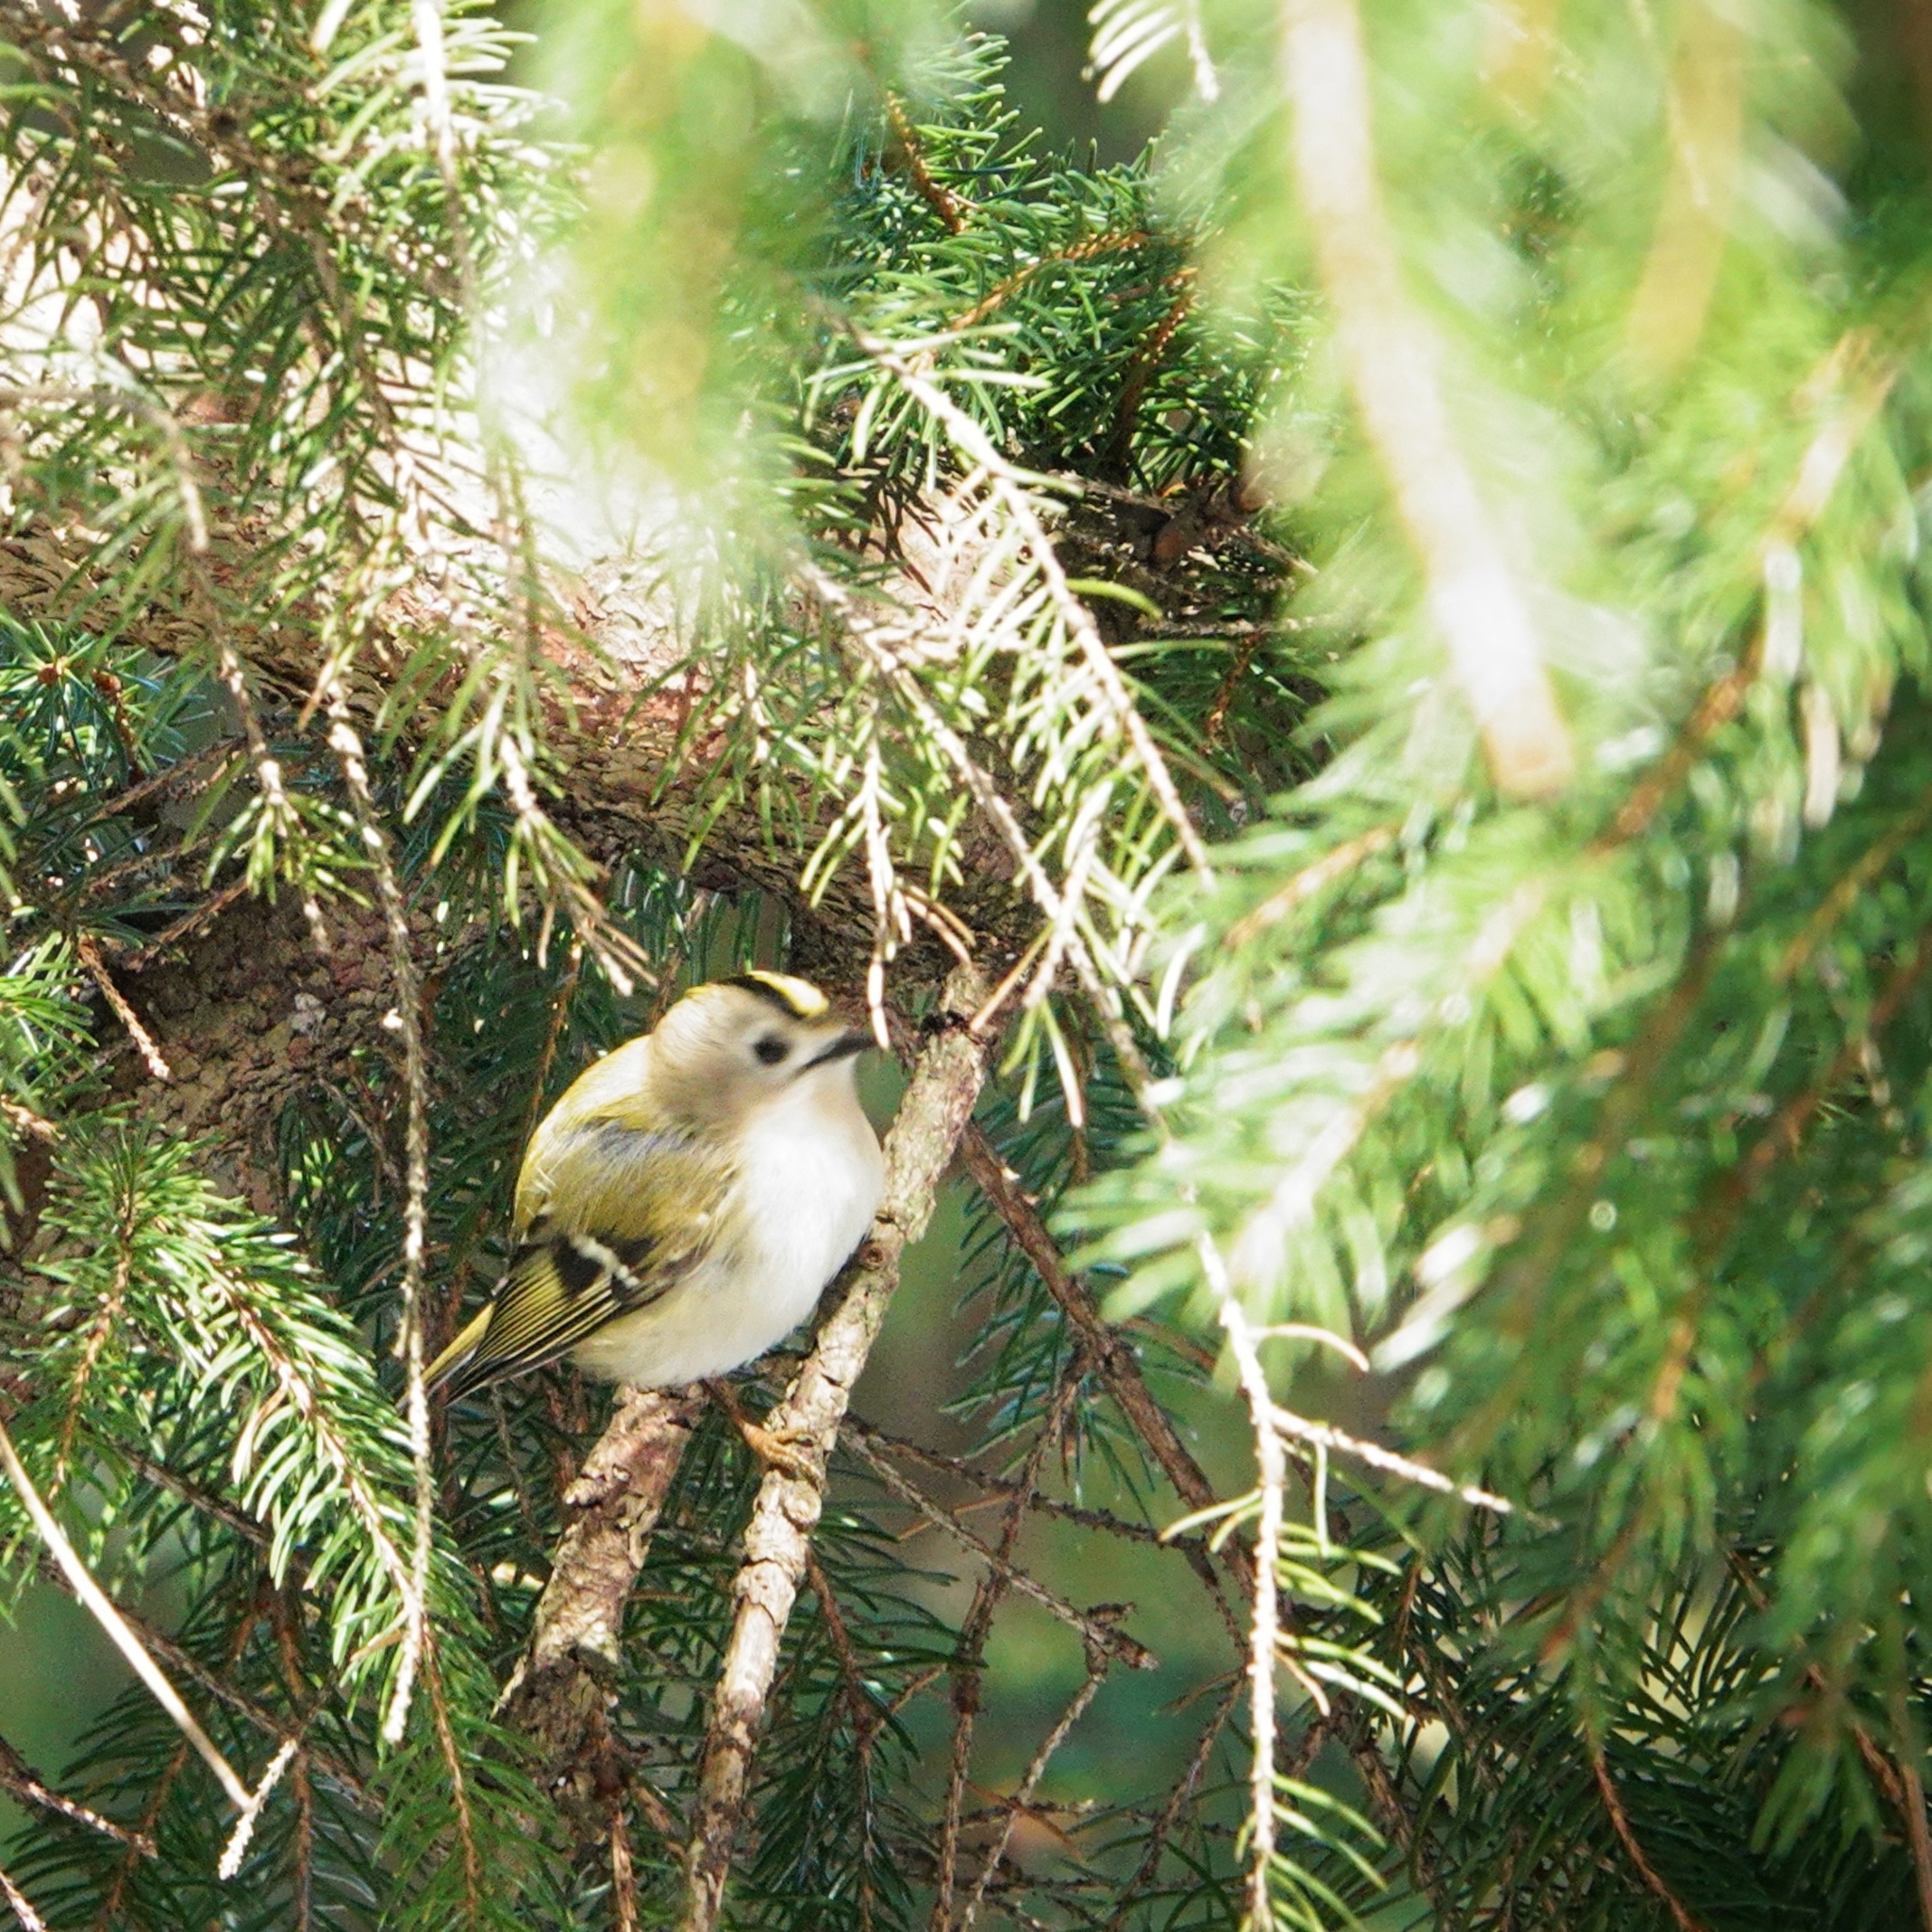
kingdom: Animalia
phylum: Chordata
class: Aves
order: Passeriformes
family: Regulidae
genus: Regulus
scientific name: Regulus regulus
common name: Goldcrest
